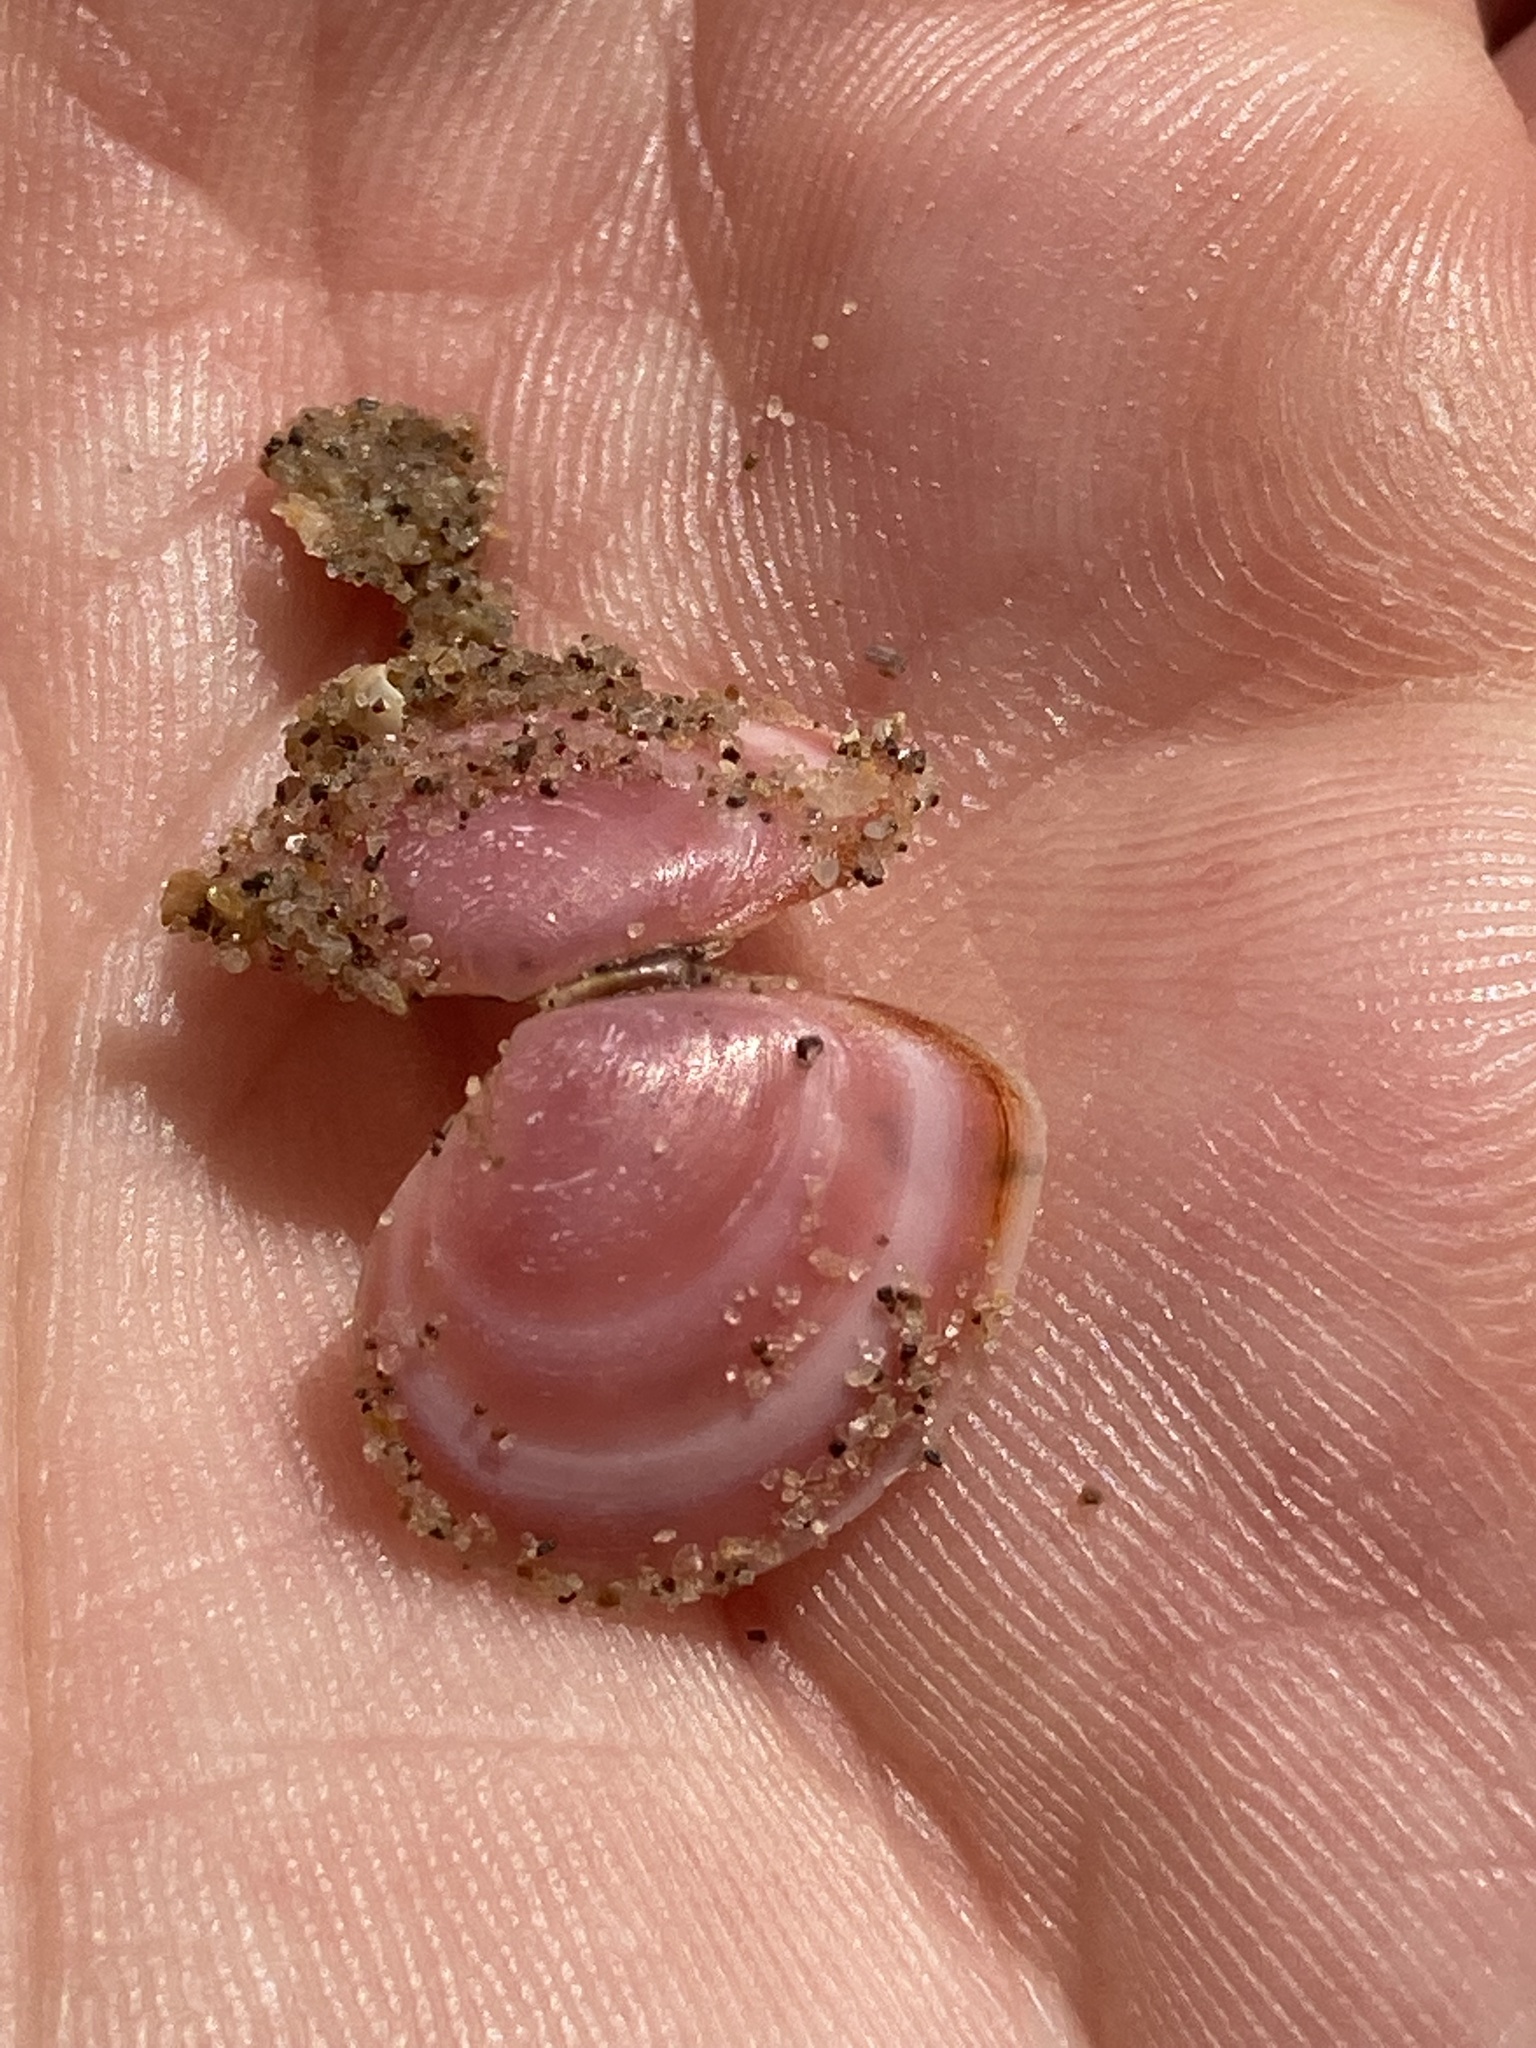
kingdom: Animalia
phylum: Mollusca
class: Bivalvia
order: Cardiida
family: Tellinidae
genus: Macoma
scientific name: Macoma balthica
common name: Baltic tellin
